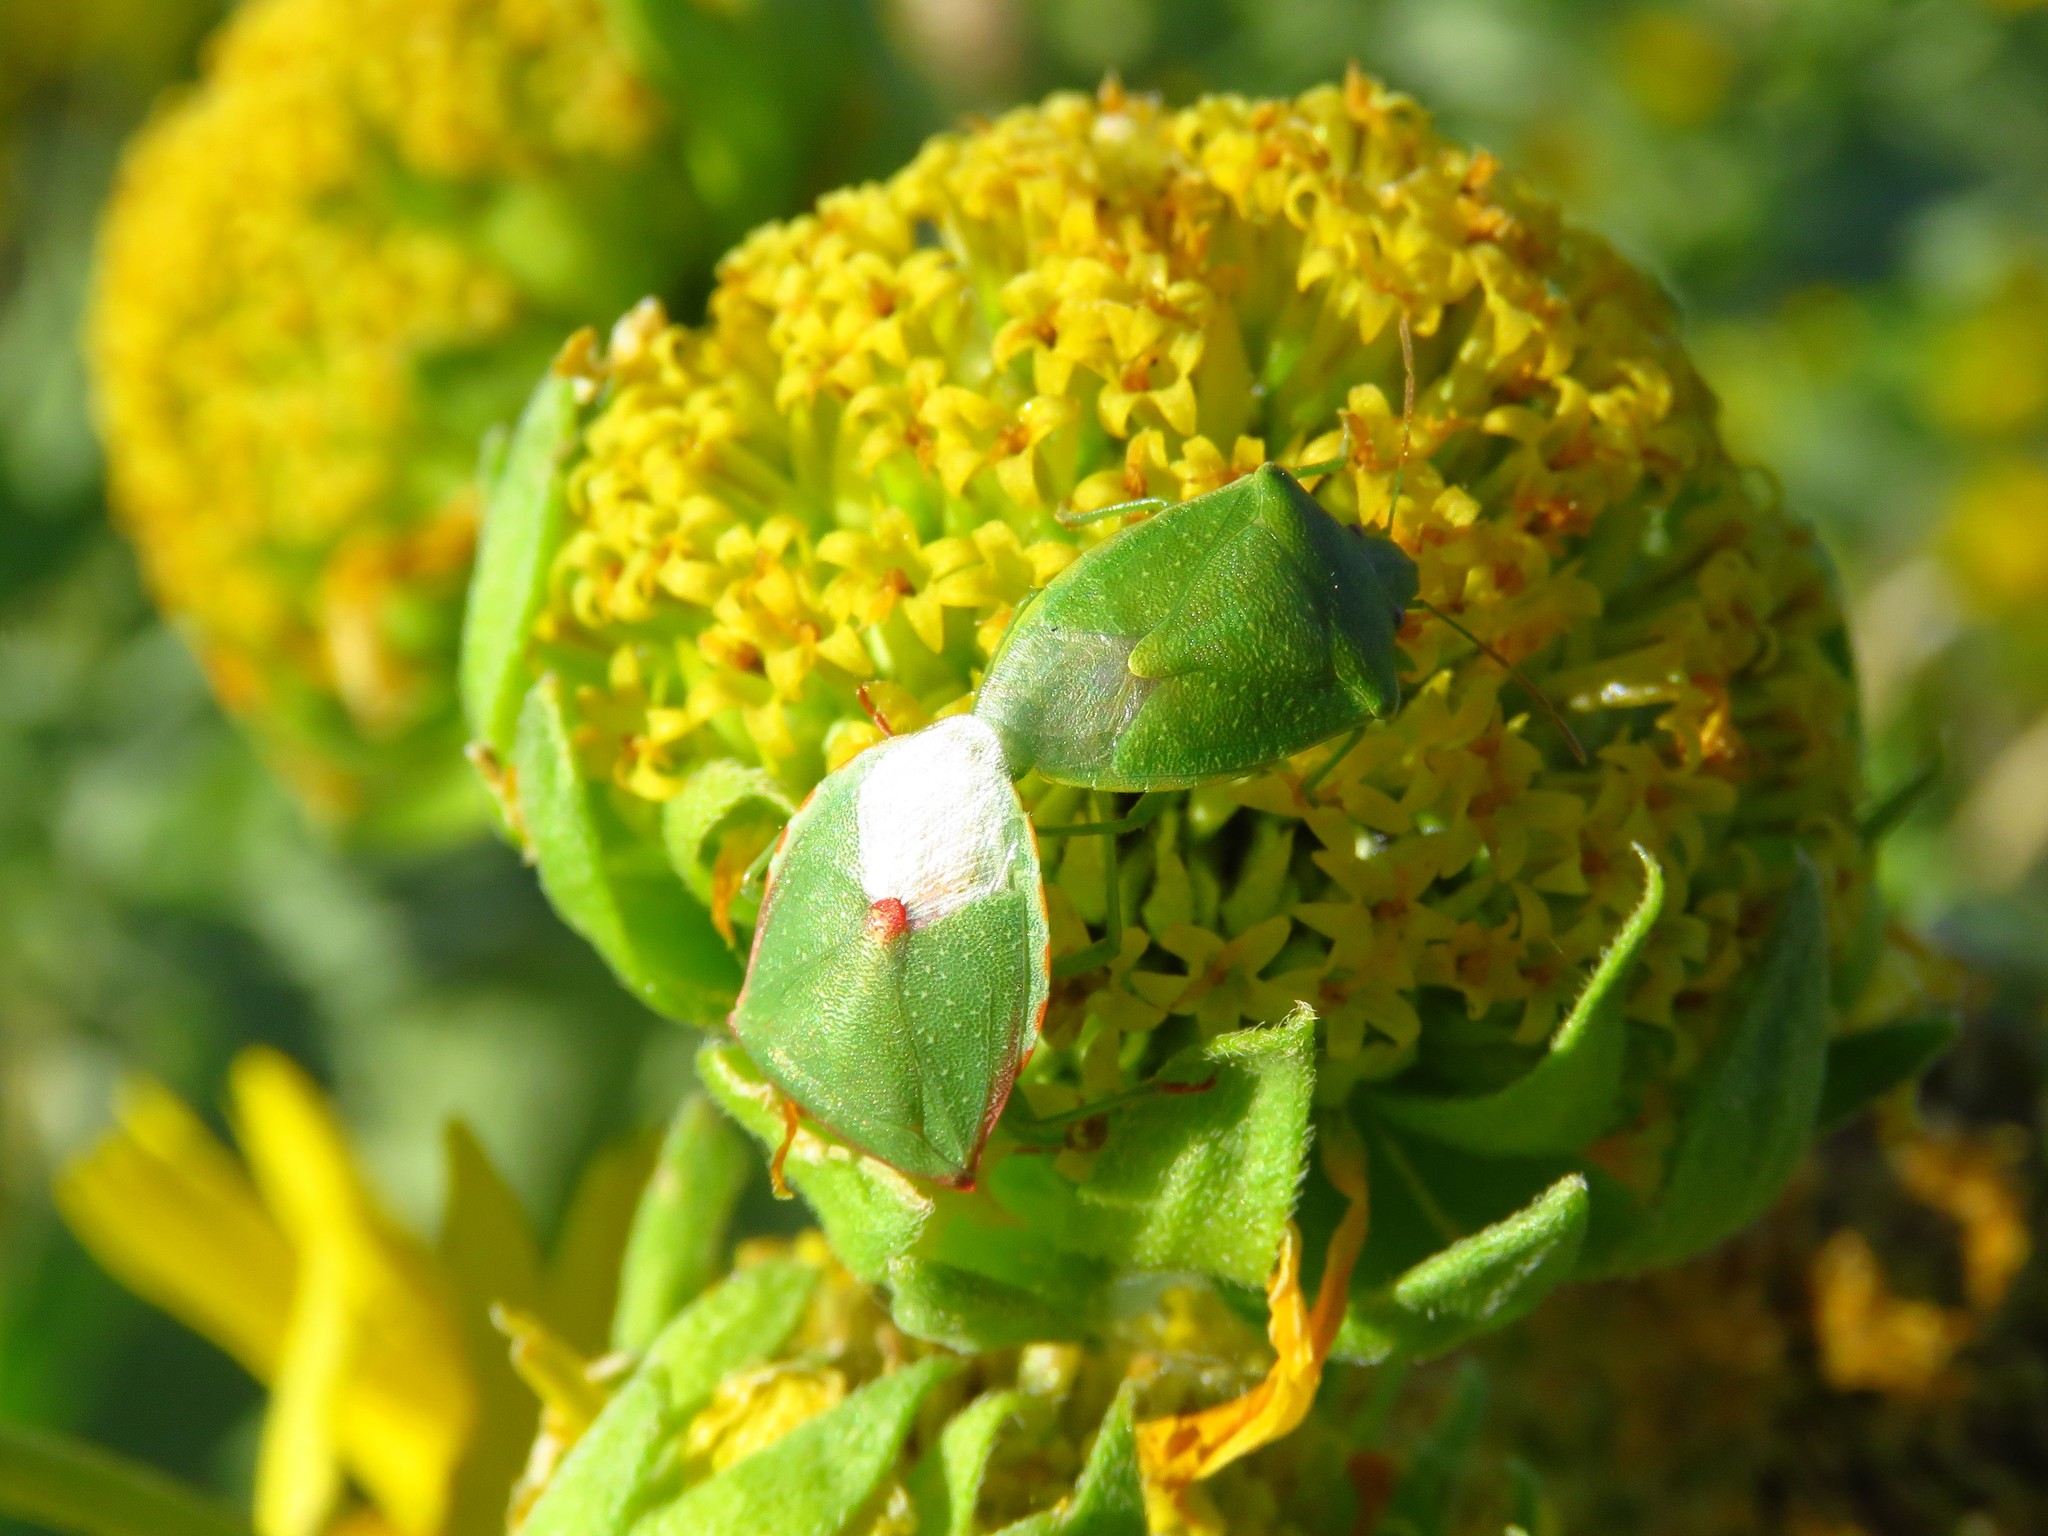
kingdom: Animalia
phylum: Arthropoda
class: Insecta
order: Hemiptera
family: Pentatomidae
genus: Thyanta
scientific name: Thyanta custator
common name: Stink bug
